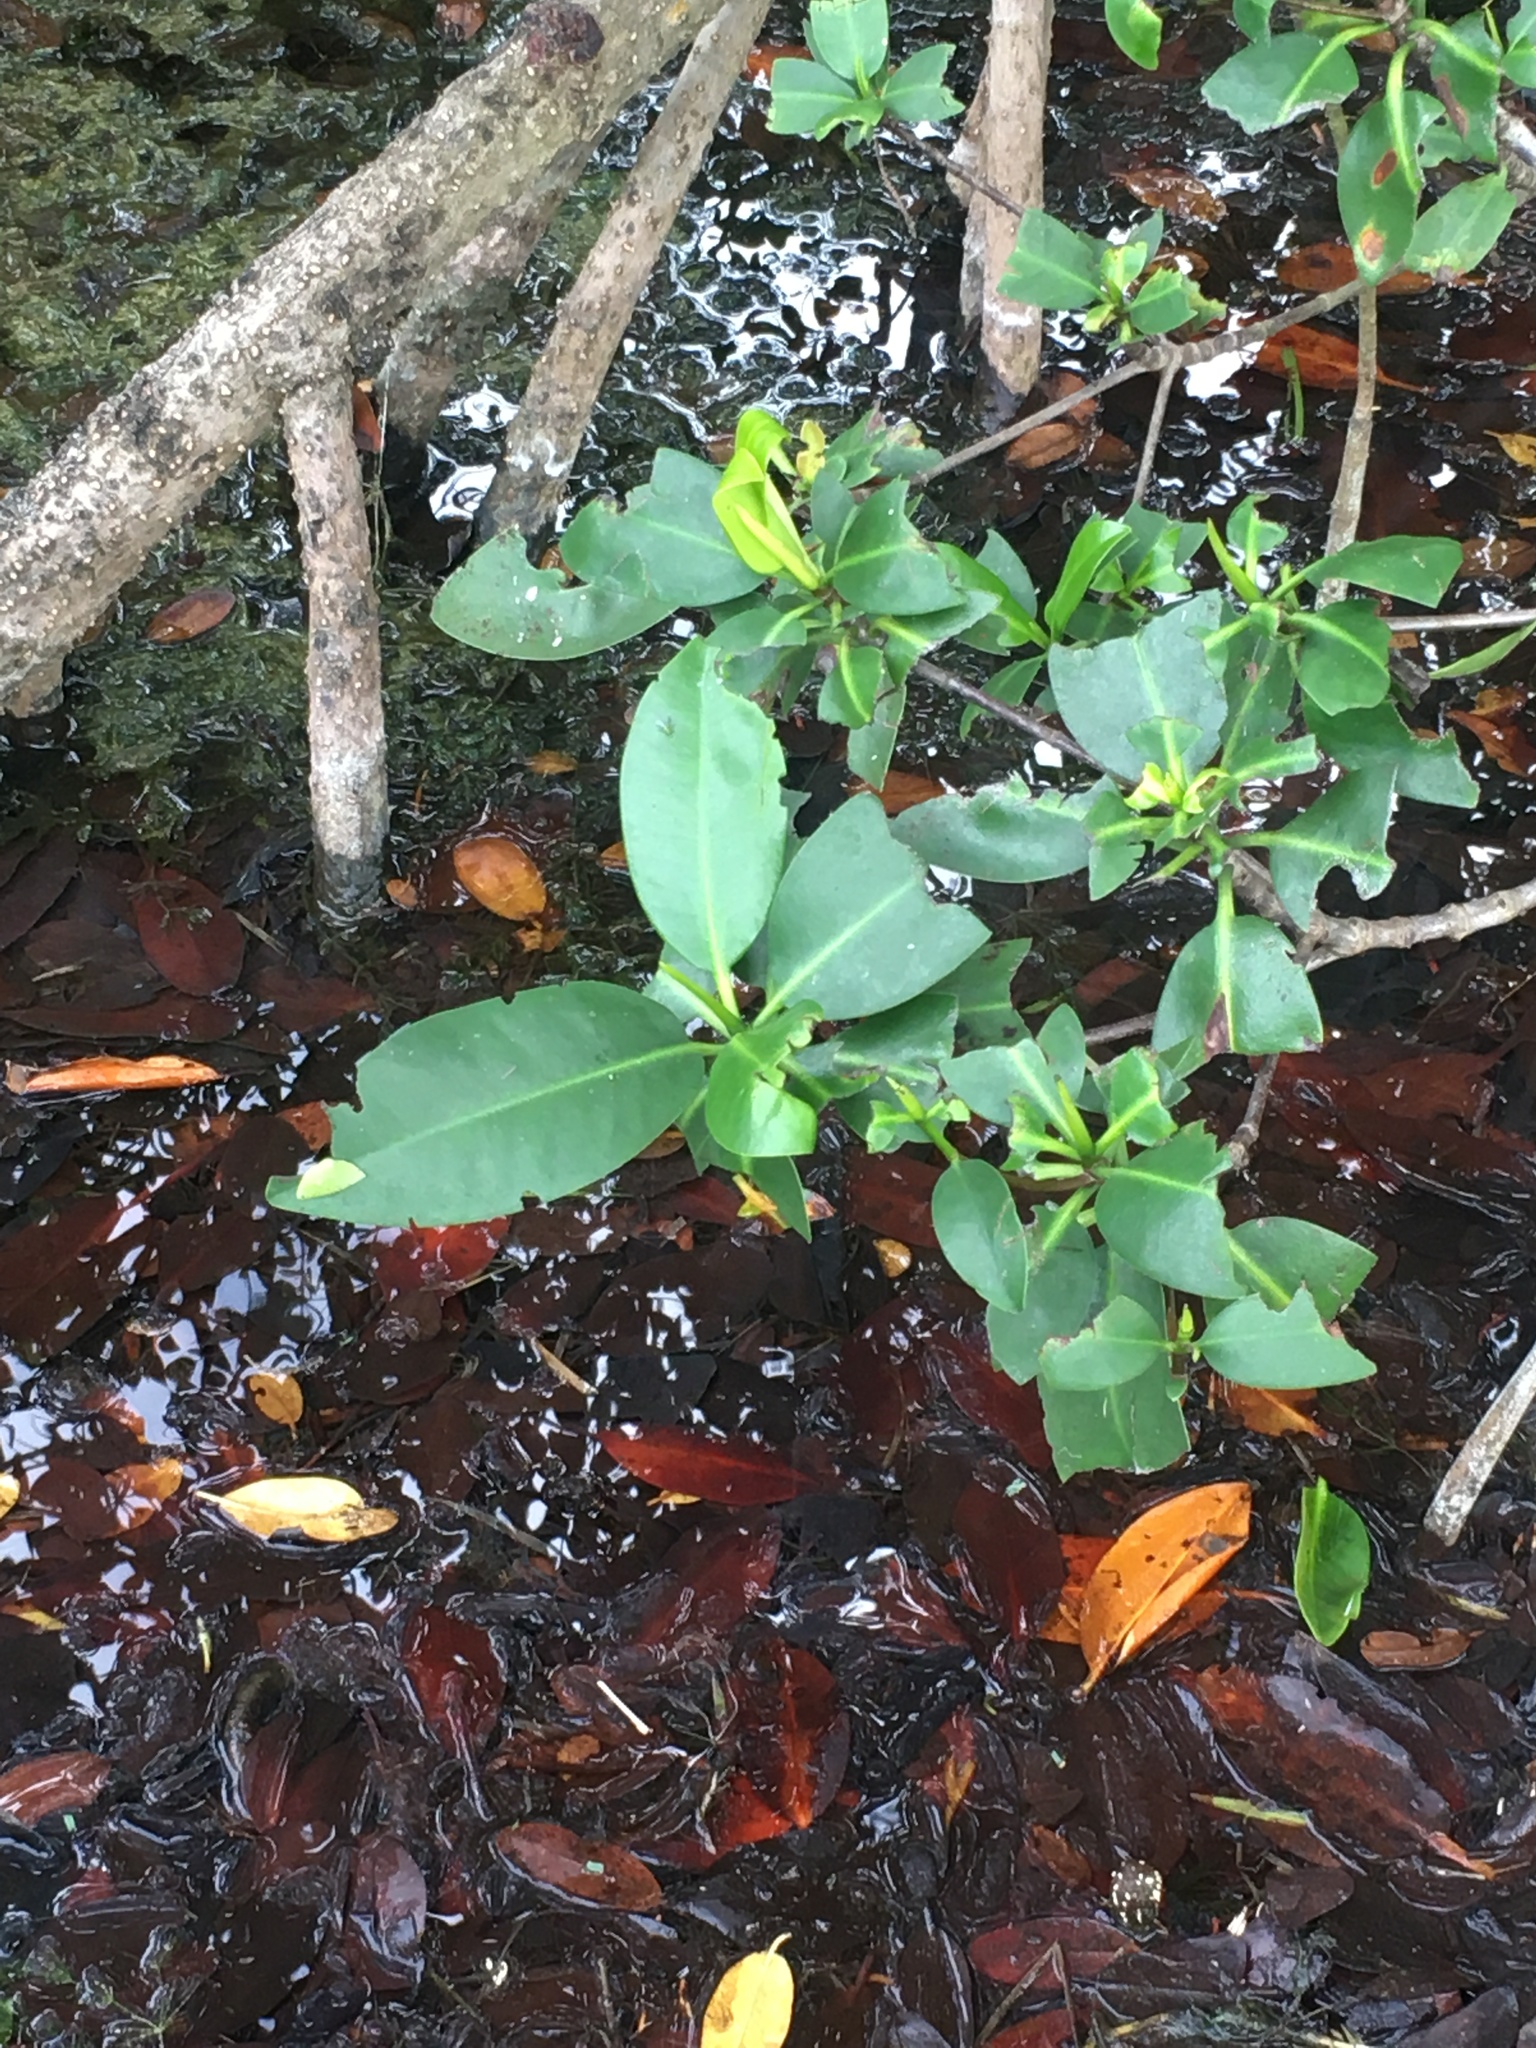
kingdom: Plantae
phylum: Tracheophyta
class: Magnoliopsida
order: Malpighiales
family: Rhizophoraceae
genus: Rhizophora
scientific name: Rhizophora mangle
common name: Red mangrove
